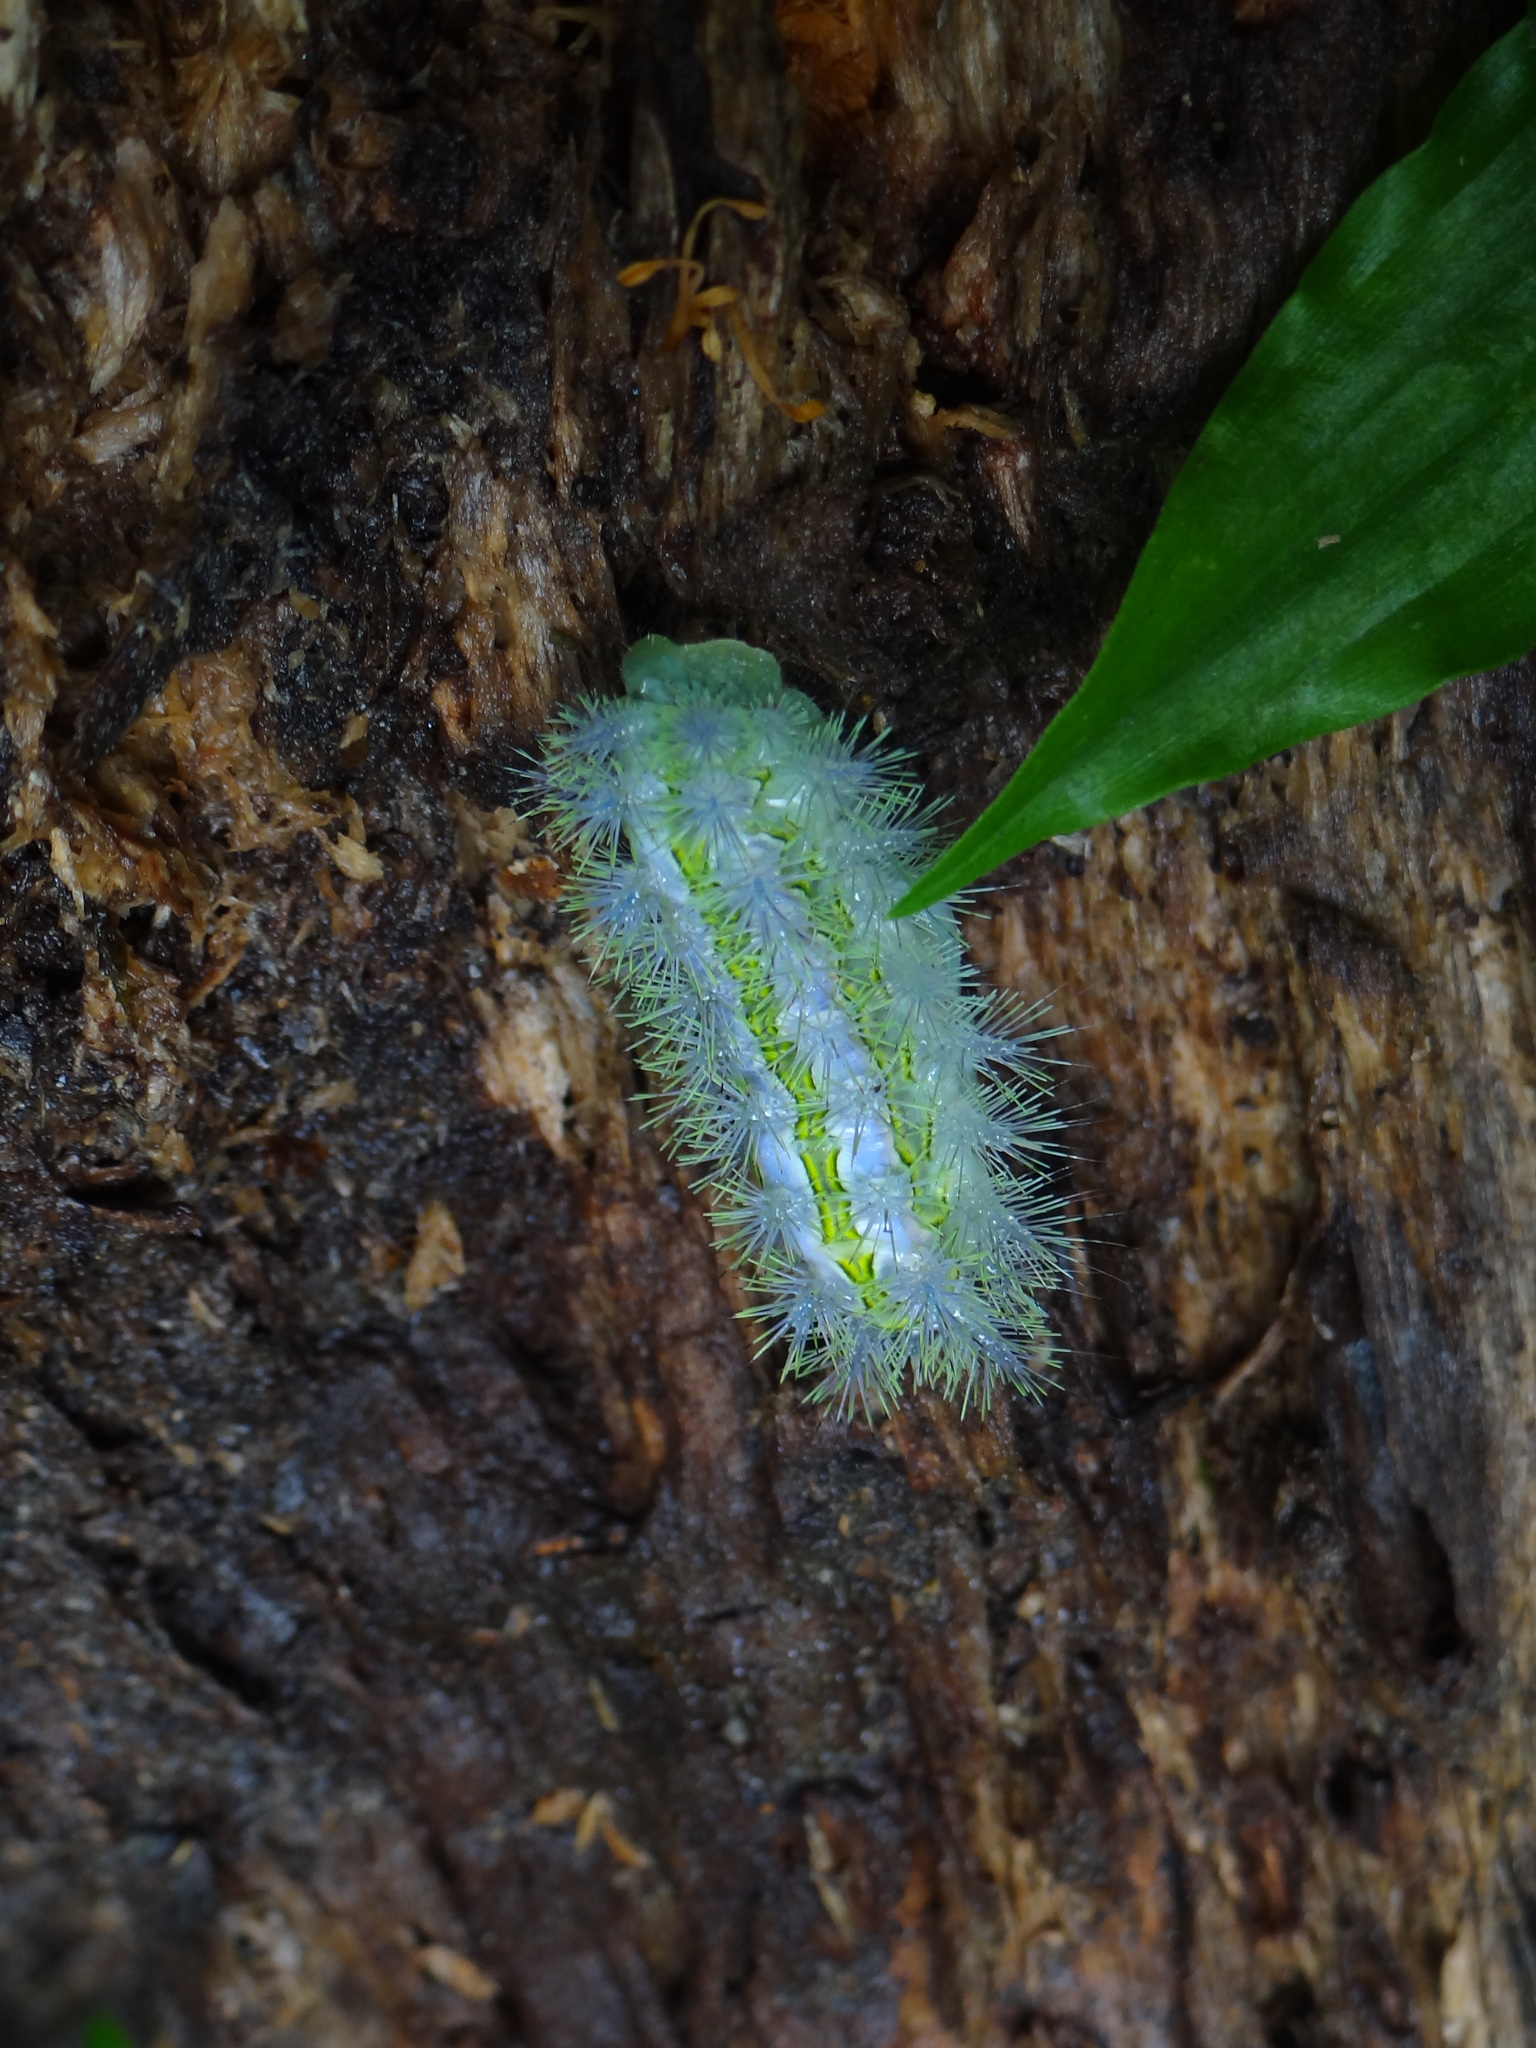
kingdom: Animalia
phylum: Arthropoda
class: Insecta
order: Lepidoptera
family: Limacodidae
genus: Susica
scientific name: Susica sinensis
